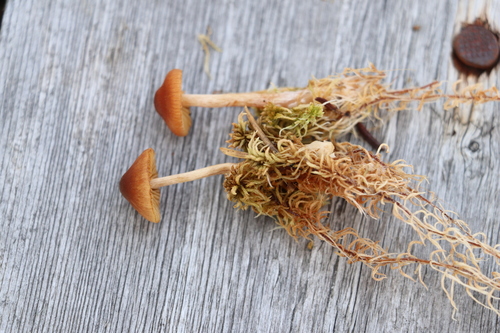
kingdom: Fungi
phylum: Basidiomycota
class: Agaricomycetes
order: Agaricales
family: Cortinariaceae
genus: Cortinarius
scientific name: Cortinarius subfloccopus
